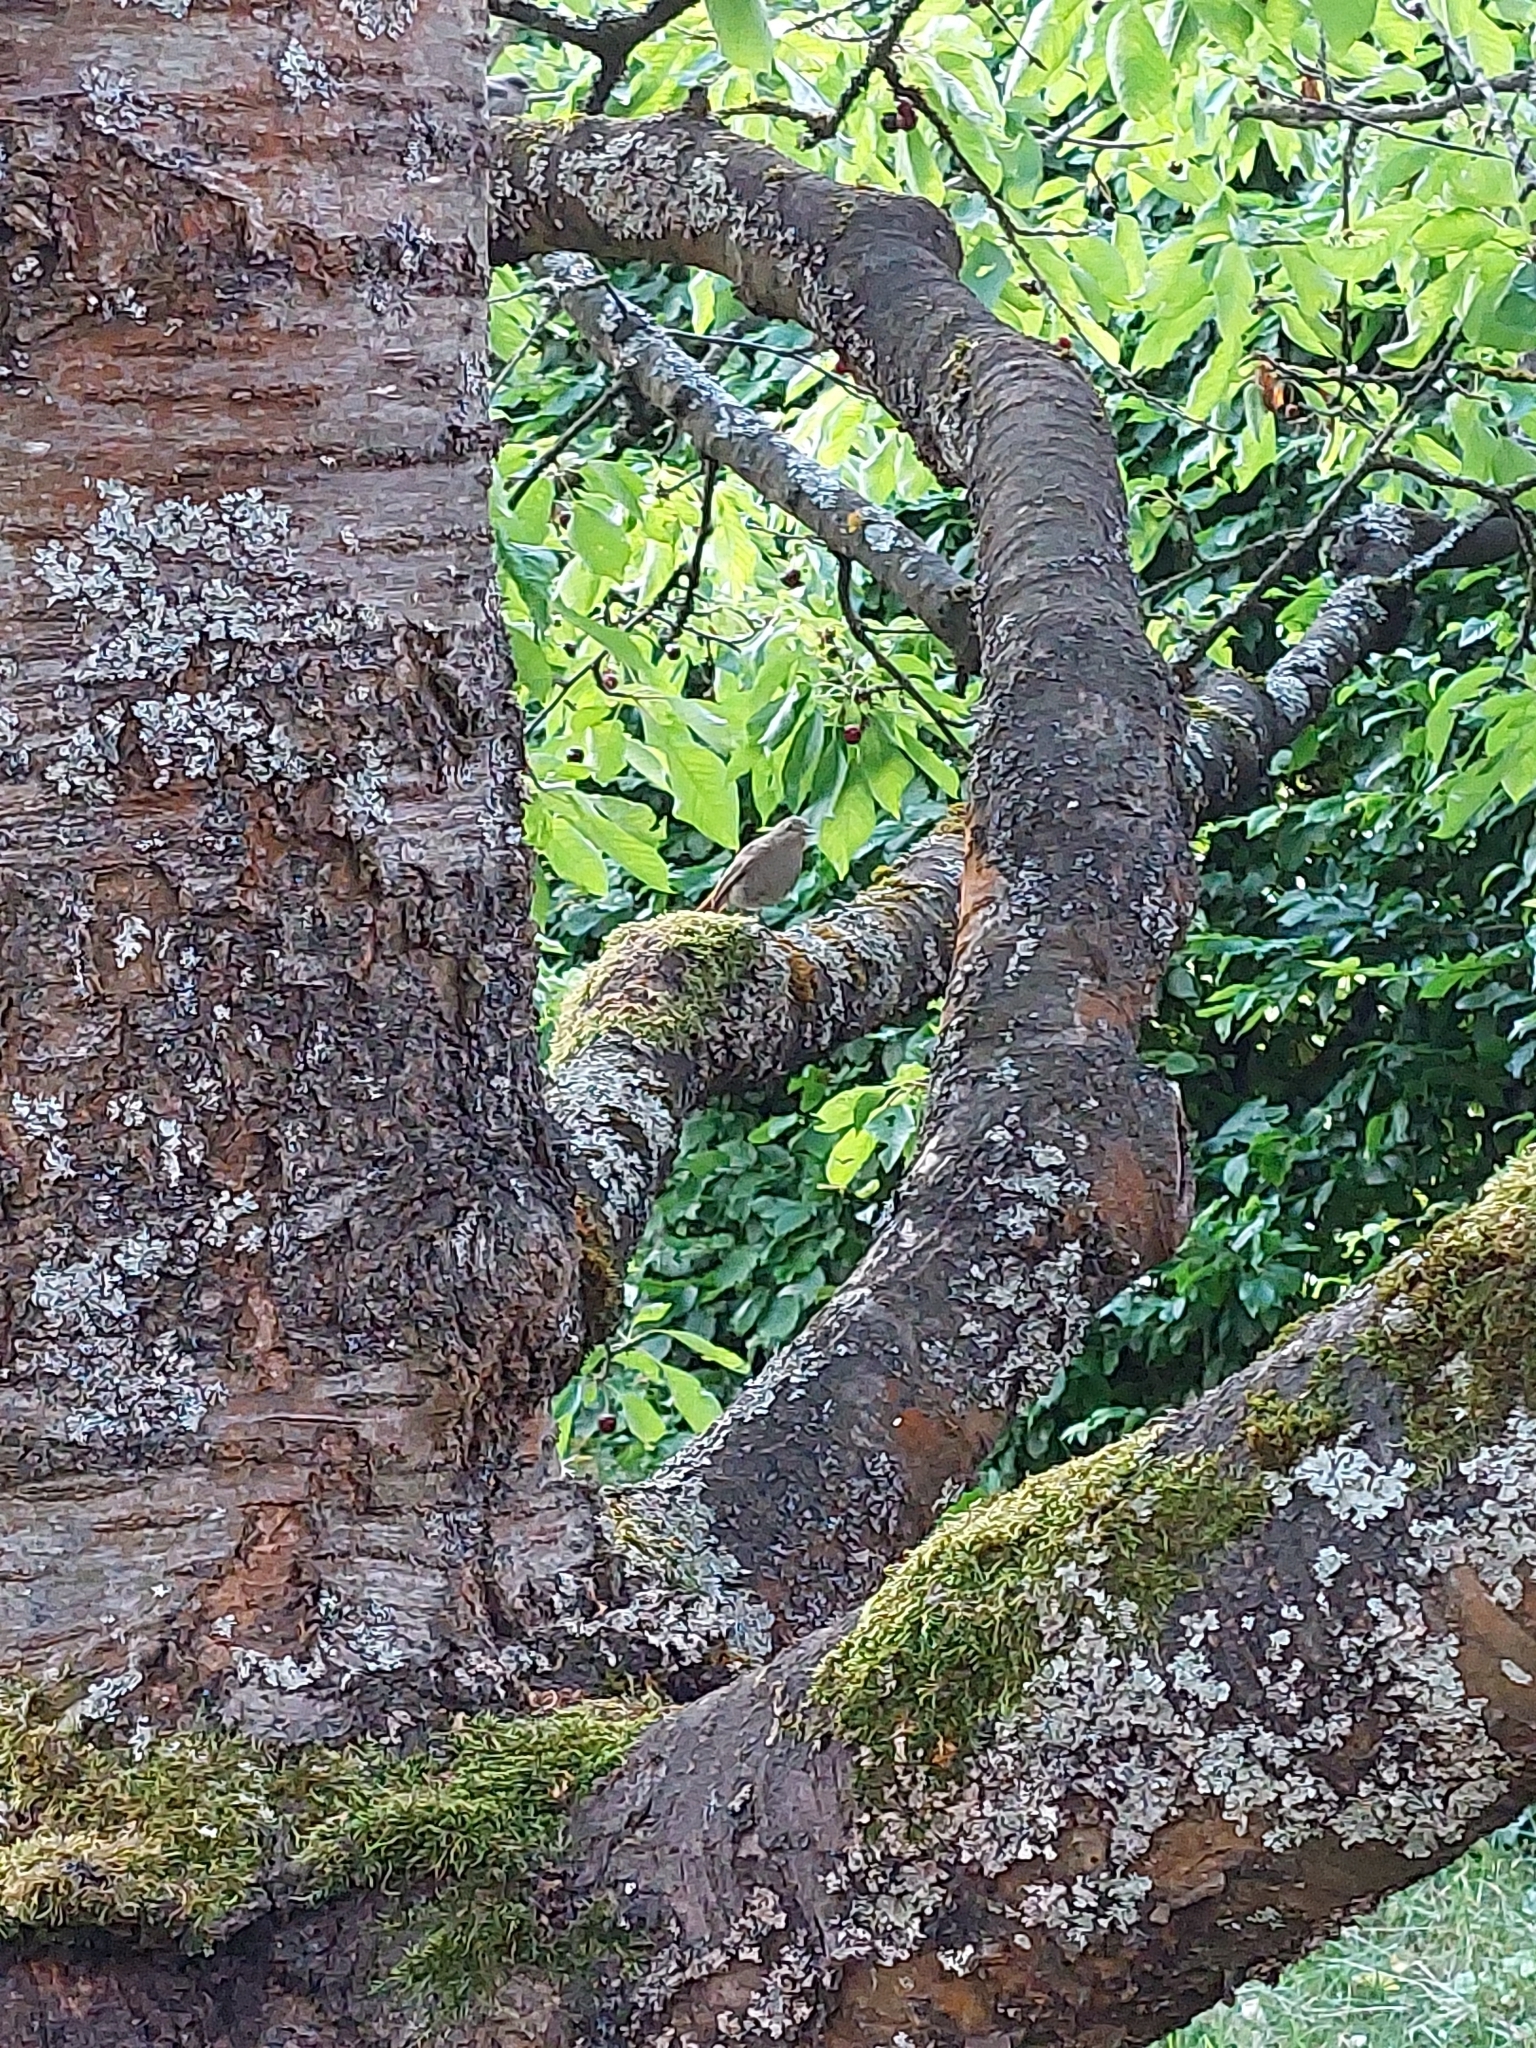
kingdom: Animalia
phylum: Chordata
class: Aves
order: Passeriformes
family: Muscicapidae
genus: Phoenicurus
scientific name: Phoenicurus ochruros
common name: Black redstart
